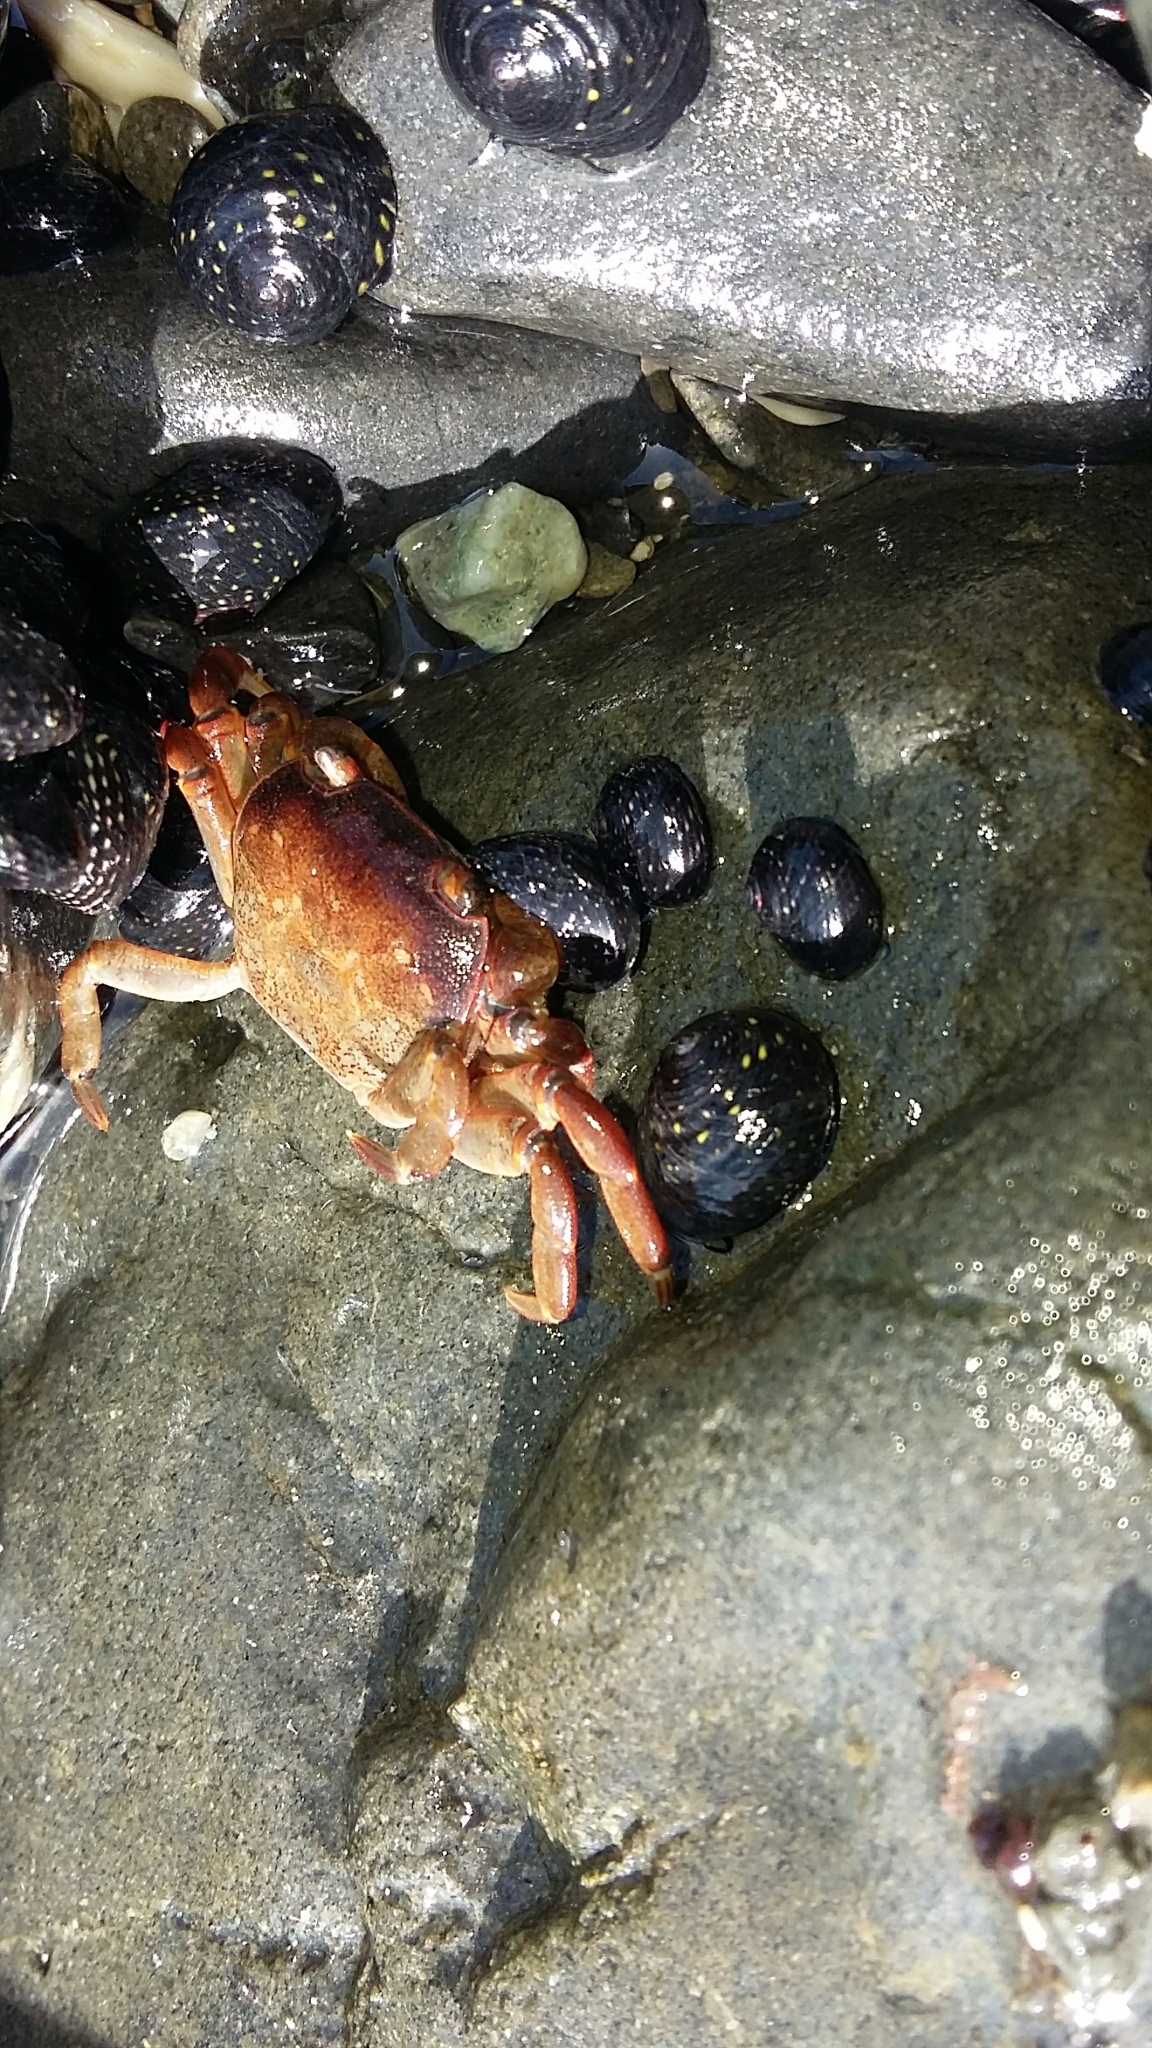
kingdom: Animalia
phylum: Arthropoda
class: Malacostraca
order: Decapoda
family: Varunidae
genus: Cyclograpsus
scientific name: Cyclograpsus lavauxi
